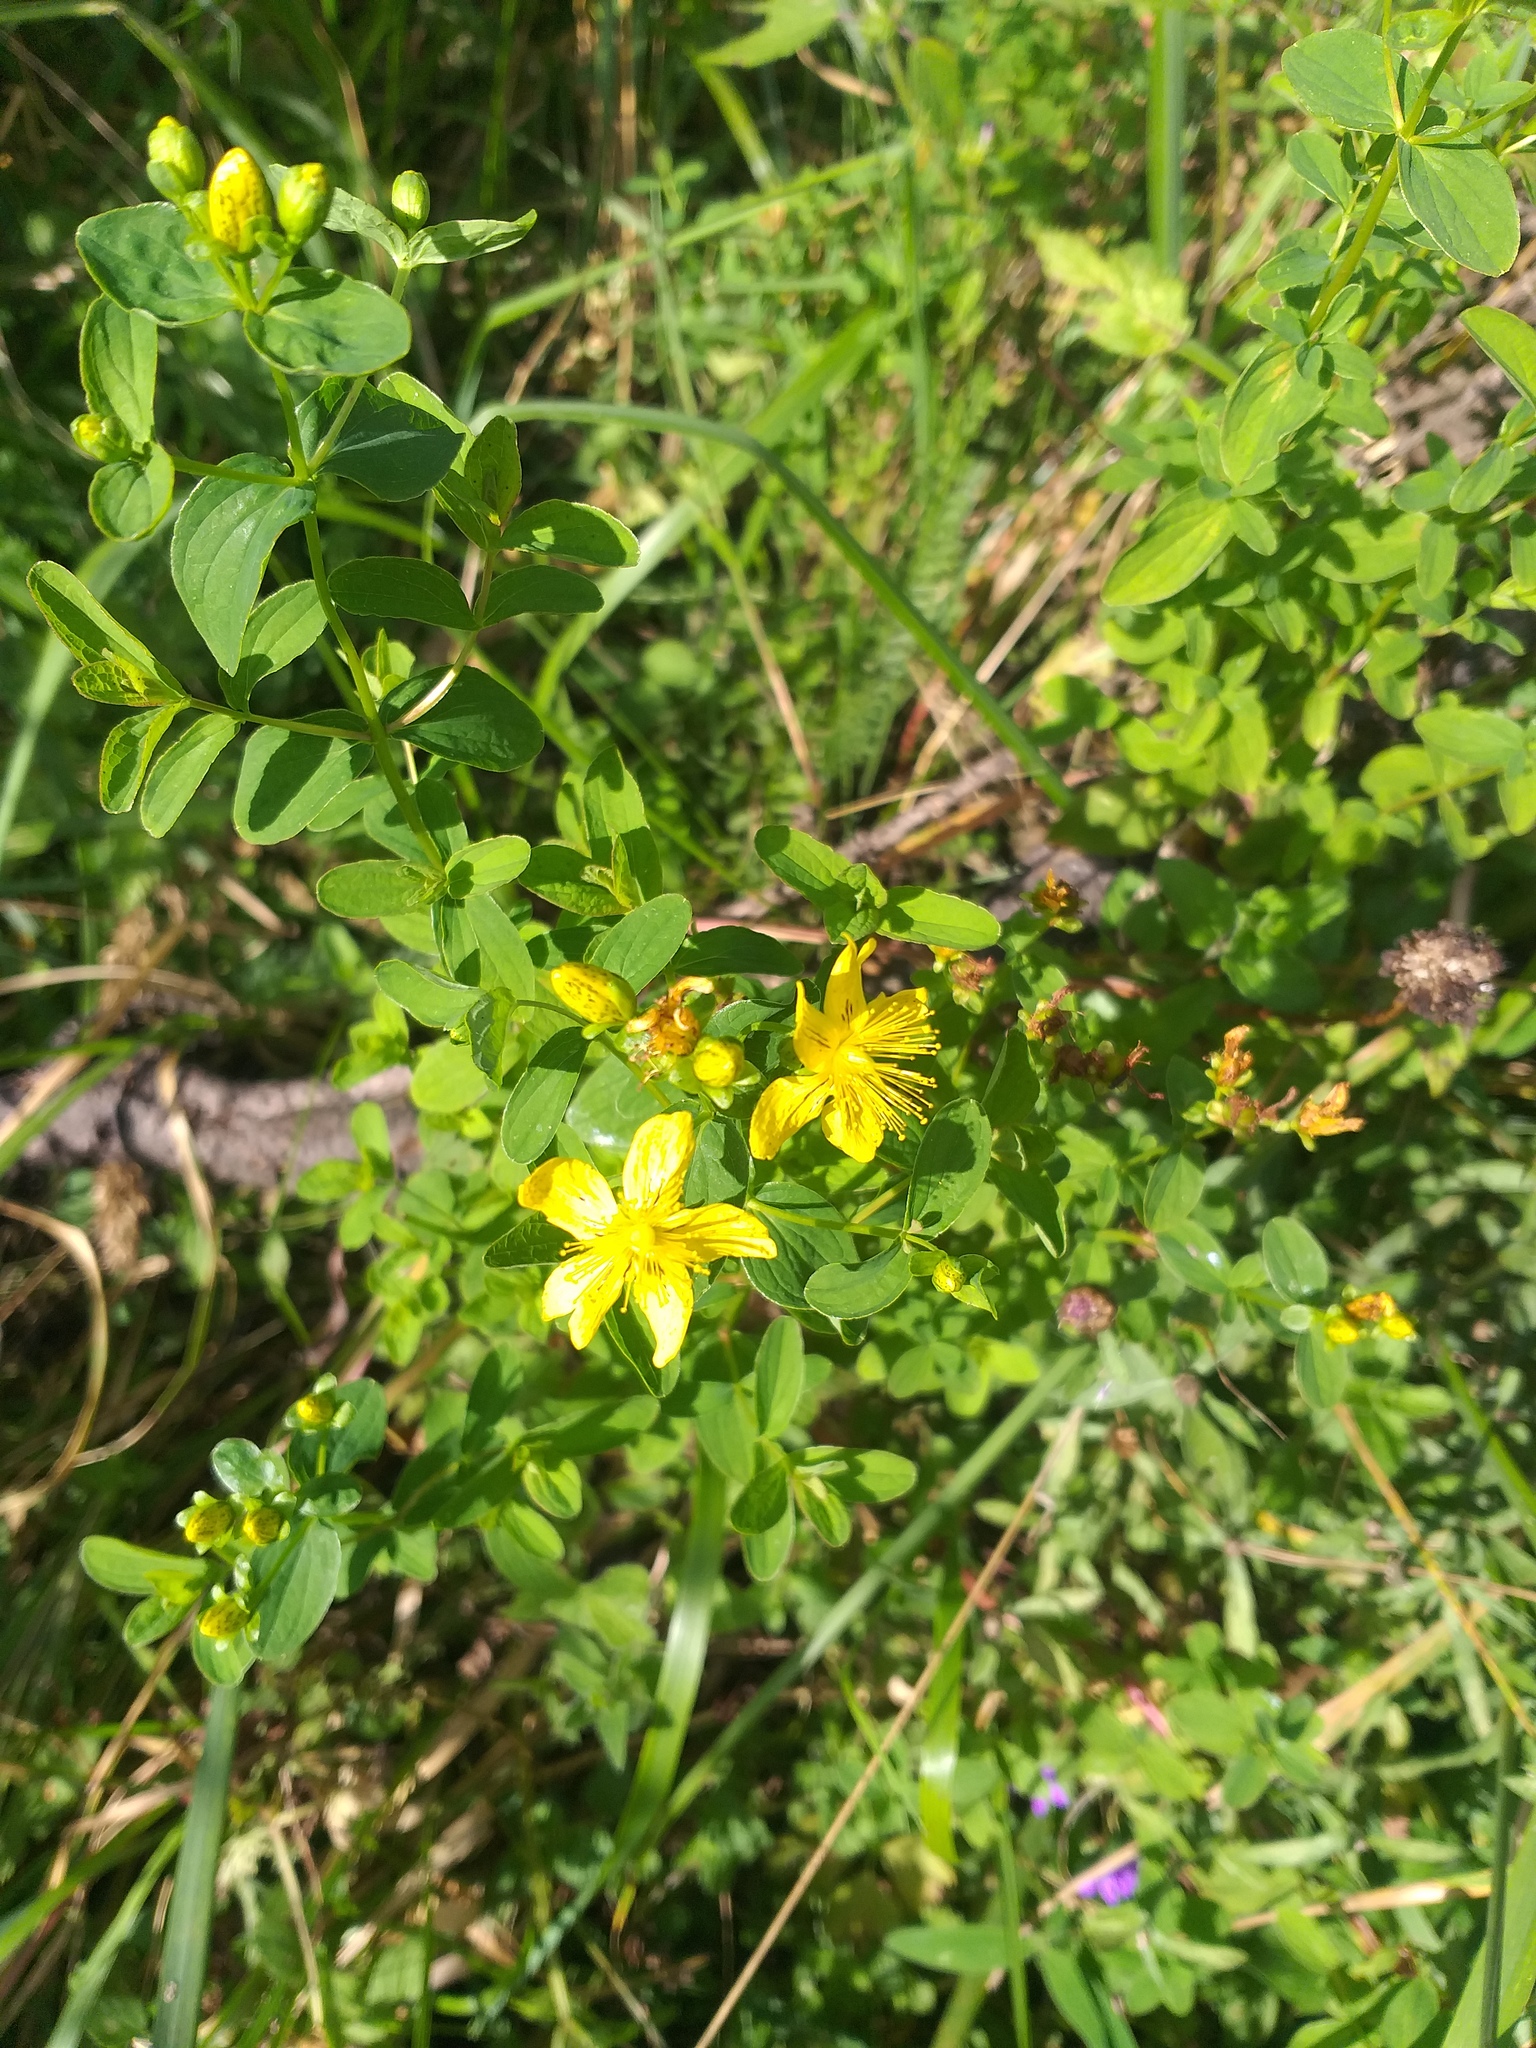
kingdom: Plantae
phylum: Tracheophyta
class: Magnoliopsida
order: Malpighiales
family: Hypericaceae
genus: Hypericum
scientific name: Hypericum maculatum
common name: Imperforate st. john's-wort
